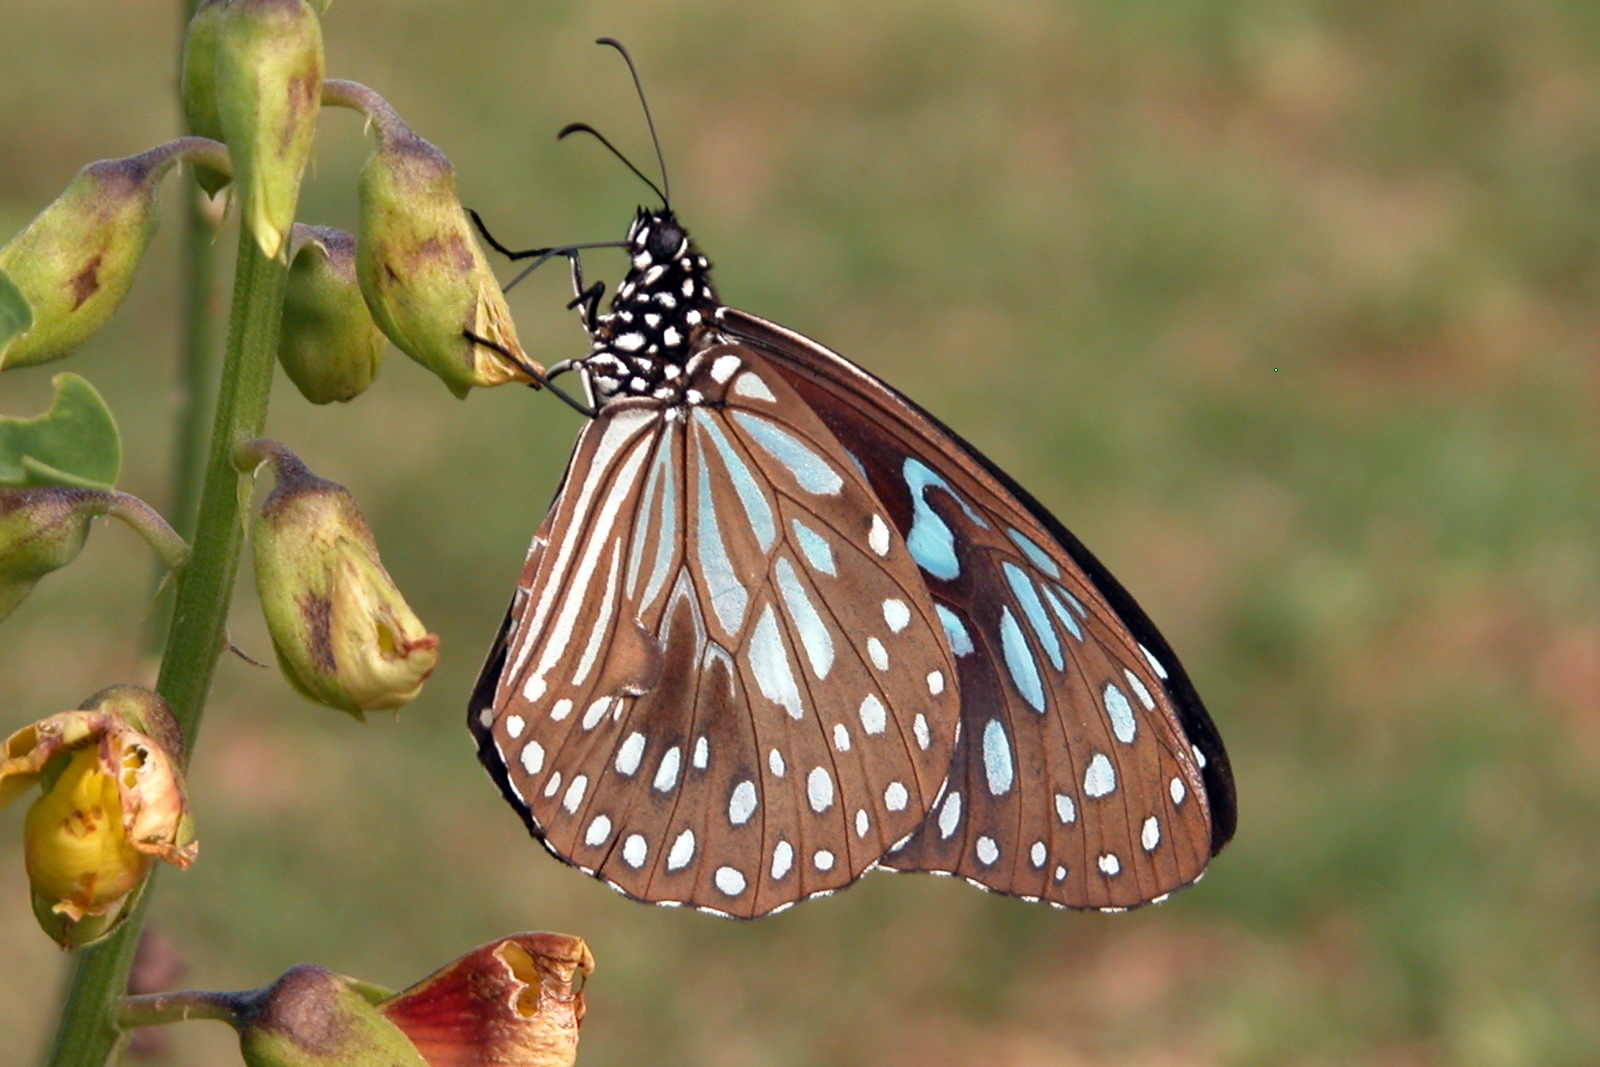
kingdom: Animalia
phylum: Arthropoda
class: Insecta
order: Lepidoptera
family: Nymphalidae
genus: Tirumala
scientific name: Tirumala septentrionis
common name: Dark blue tiger butterfly
